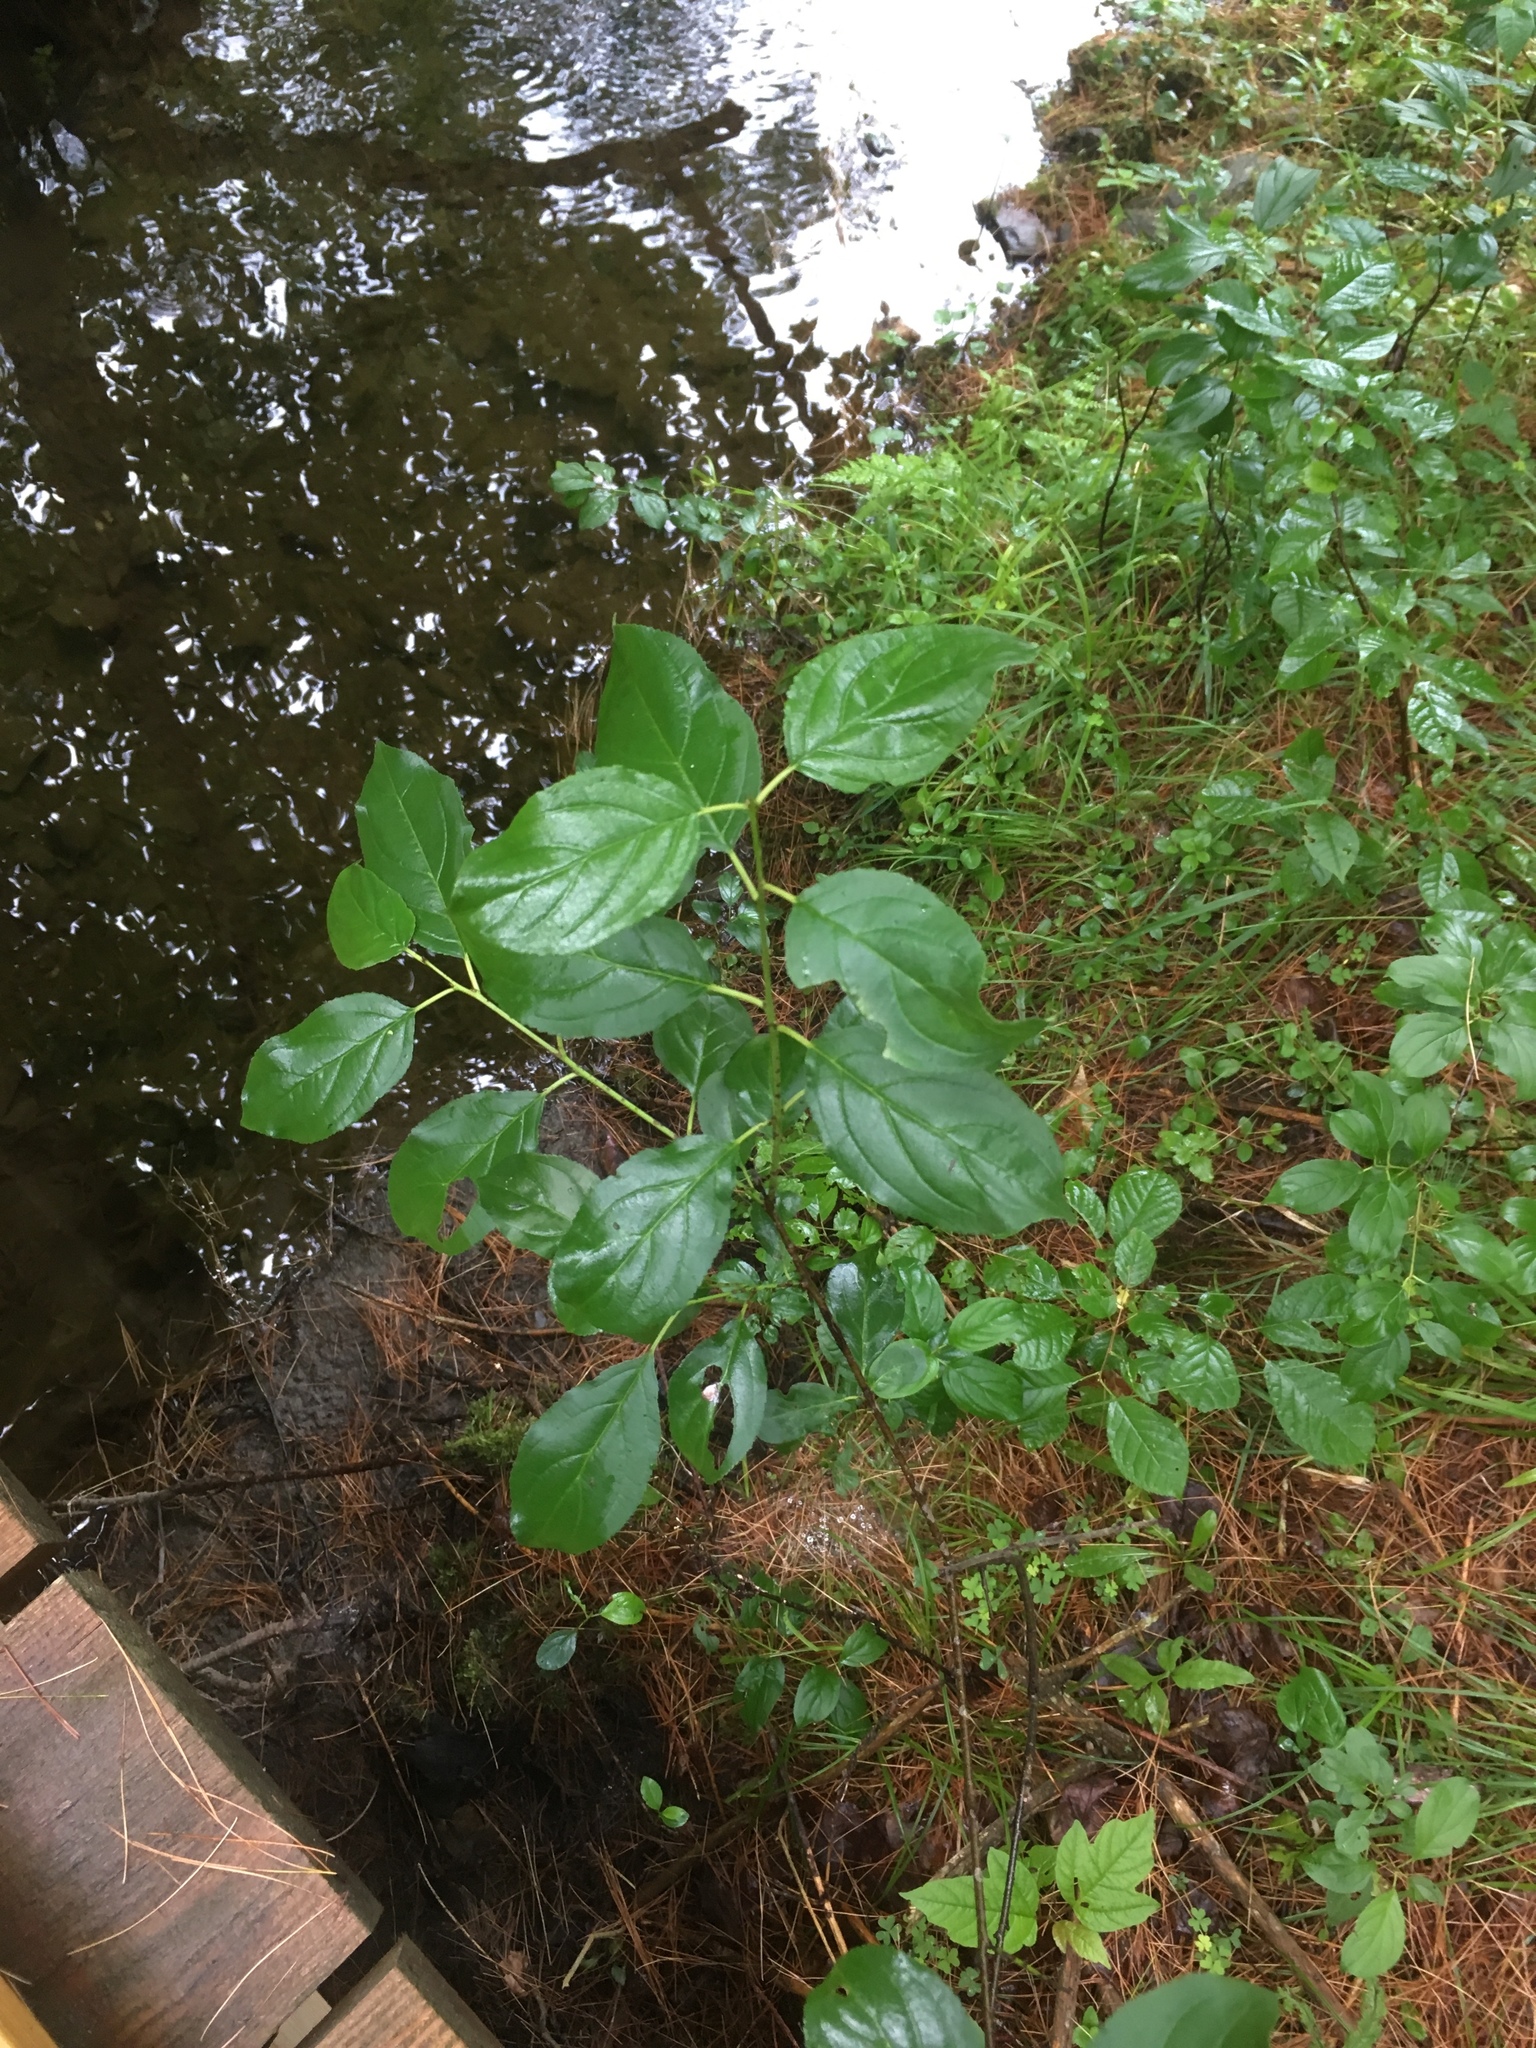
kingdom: Plantae
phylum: Tracheophyta
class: Magnoliopsida
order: Rosales
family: Rhamnaceae
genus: Rhamnus
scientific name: Rhamnus cathartica
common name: Common buckthorn
